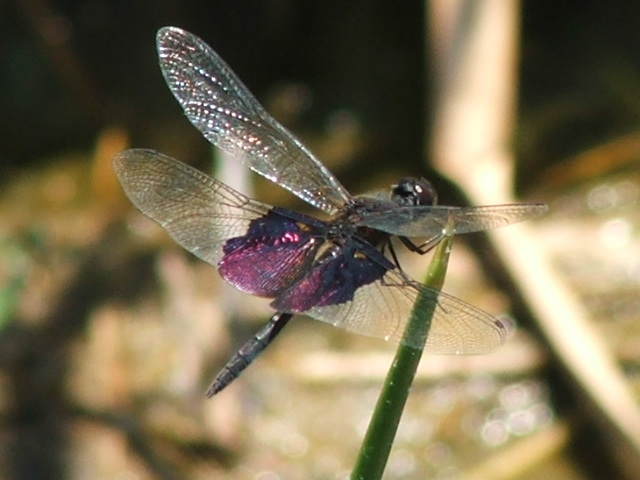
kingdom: Animalia
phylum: Arthropoda
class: Insecta
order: Odonata
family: Libellulidae
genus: Rhyothemis
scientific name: Rhyothemis semihyalina
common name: Phantom flutterer
